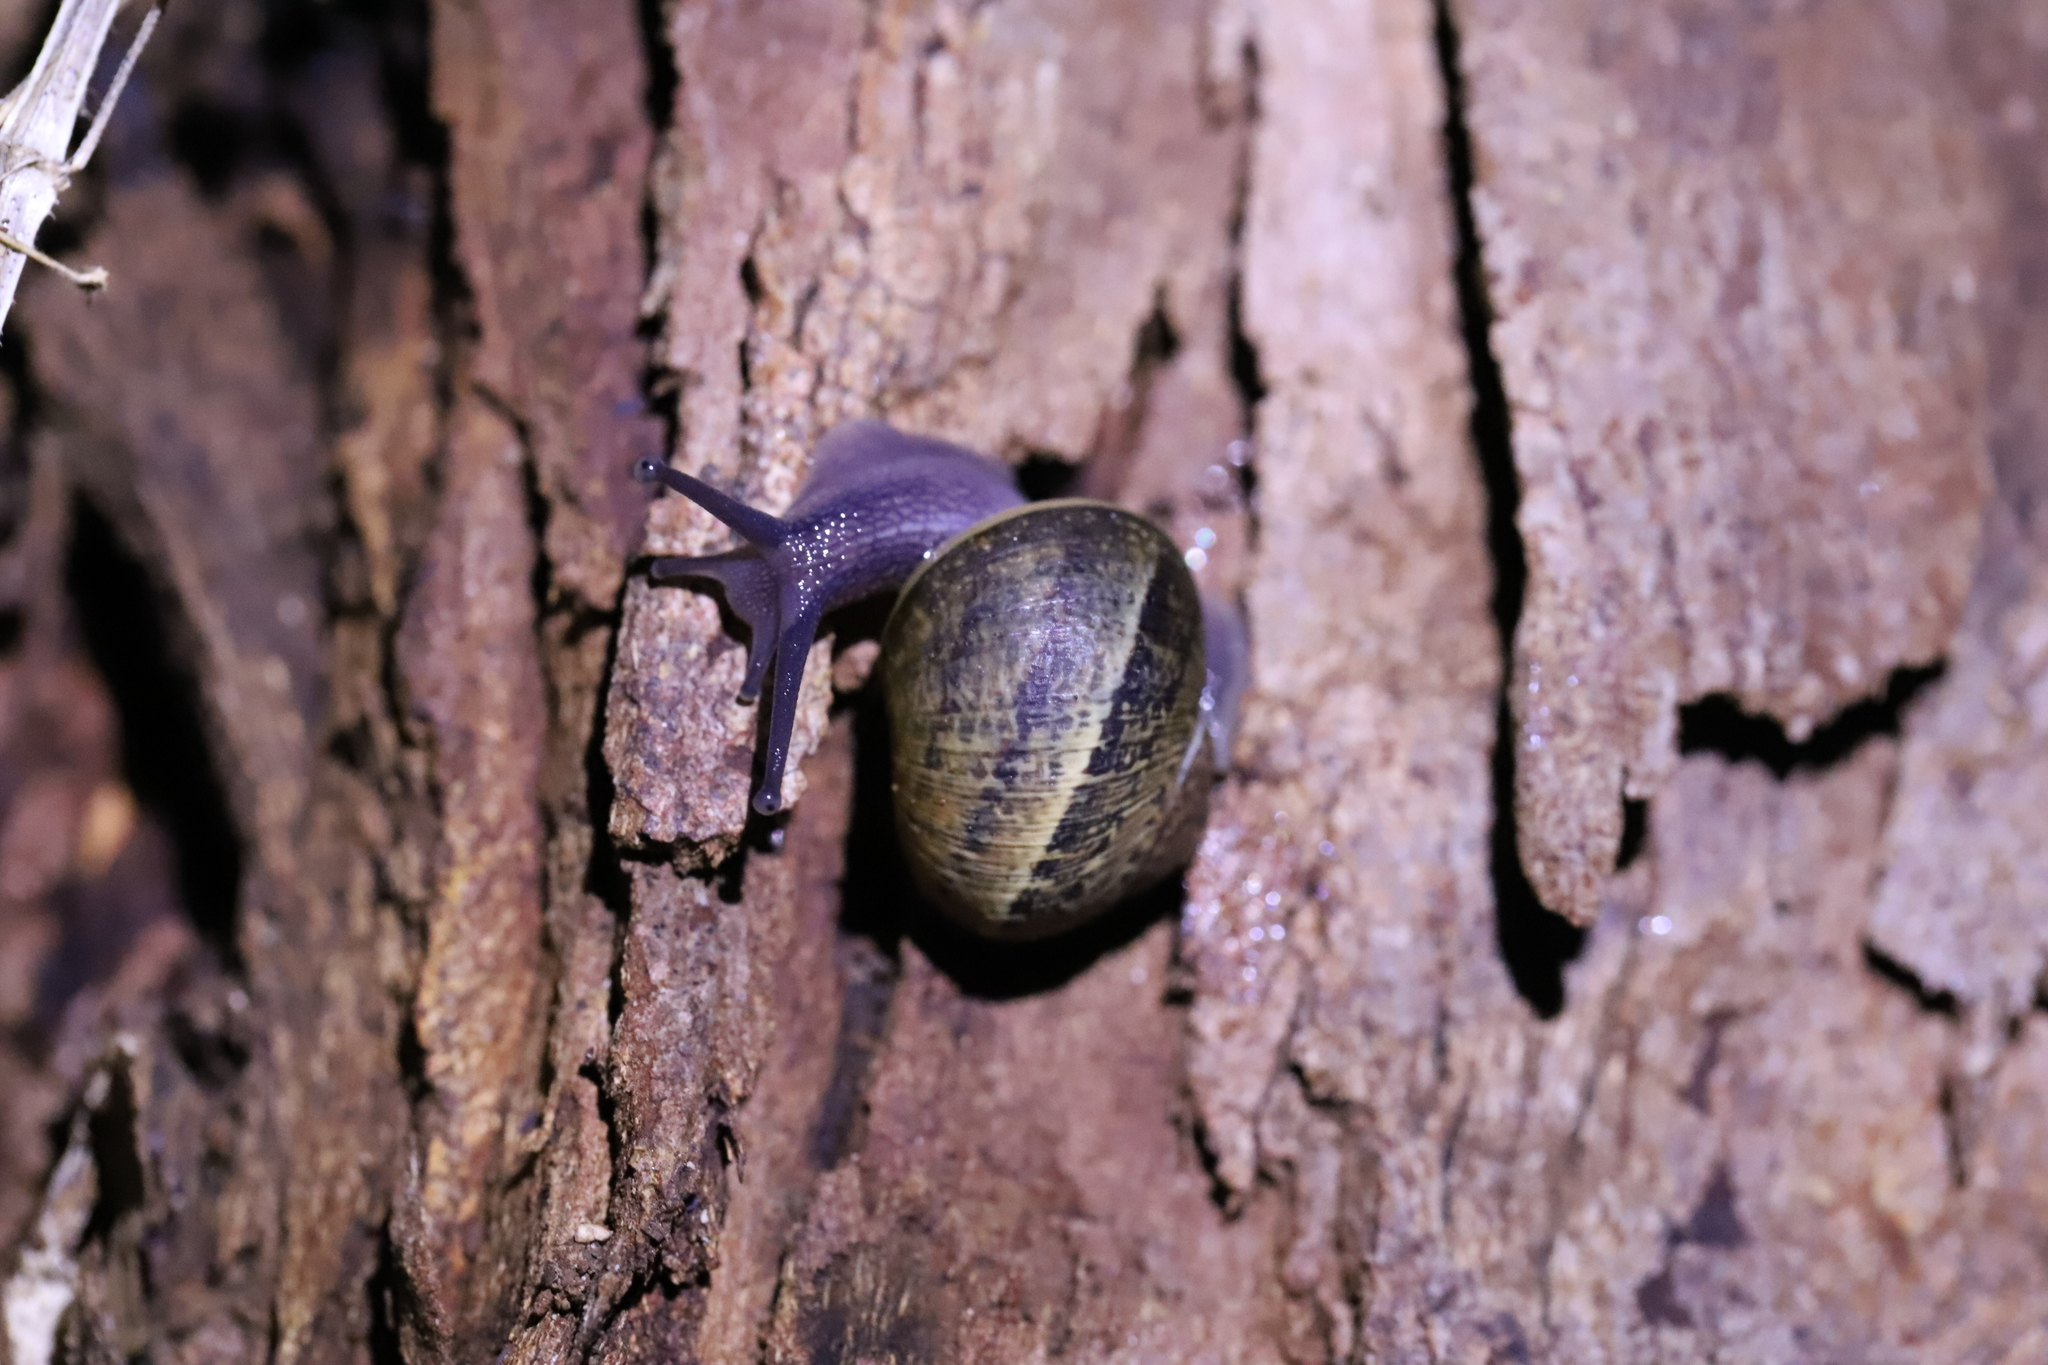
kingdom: Animalia
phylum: Mollusca
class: Gastropoda
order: Stylommatophora
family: Helicidae
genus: Cornu
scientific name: Cornu aspersum
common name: Brown garden snail
